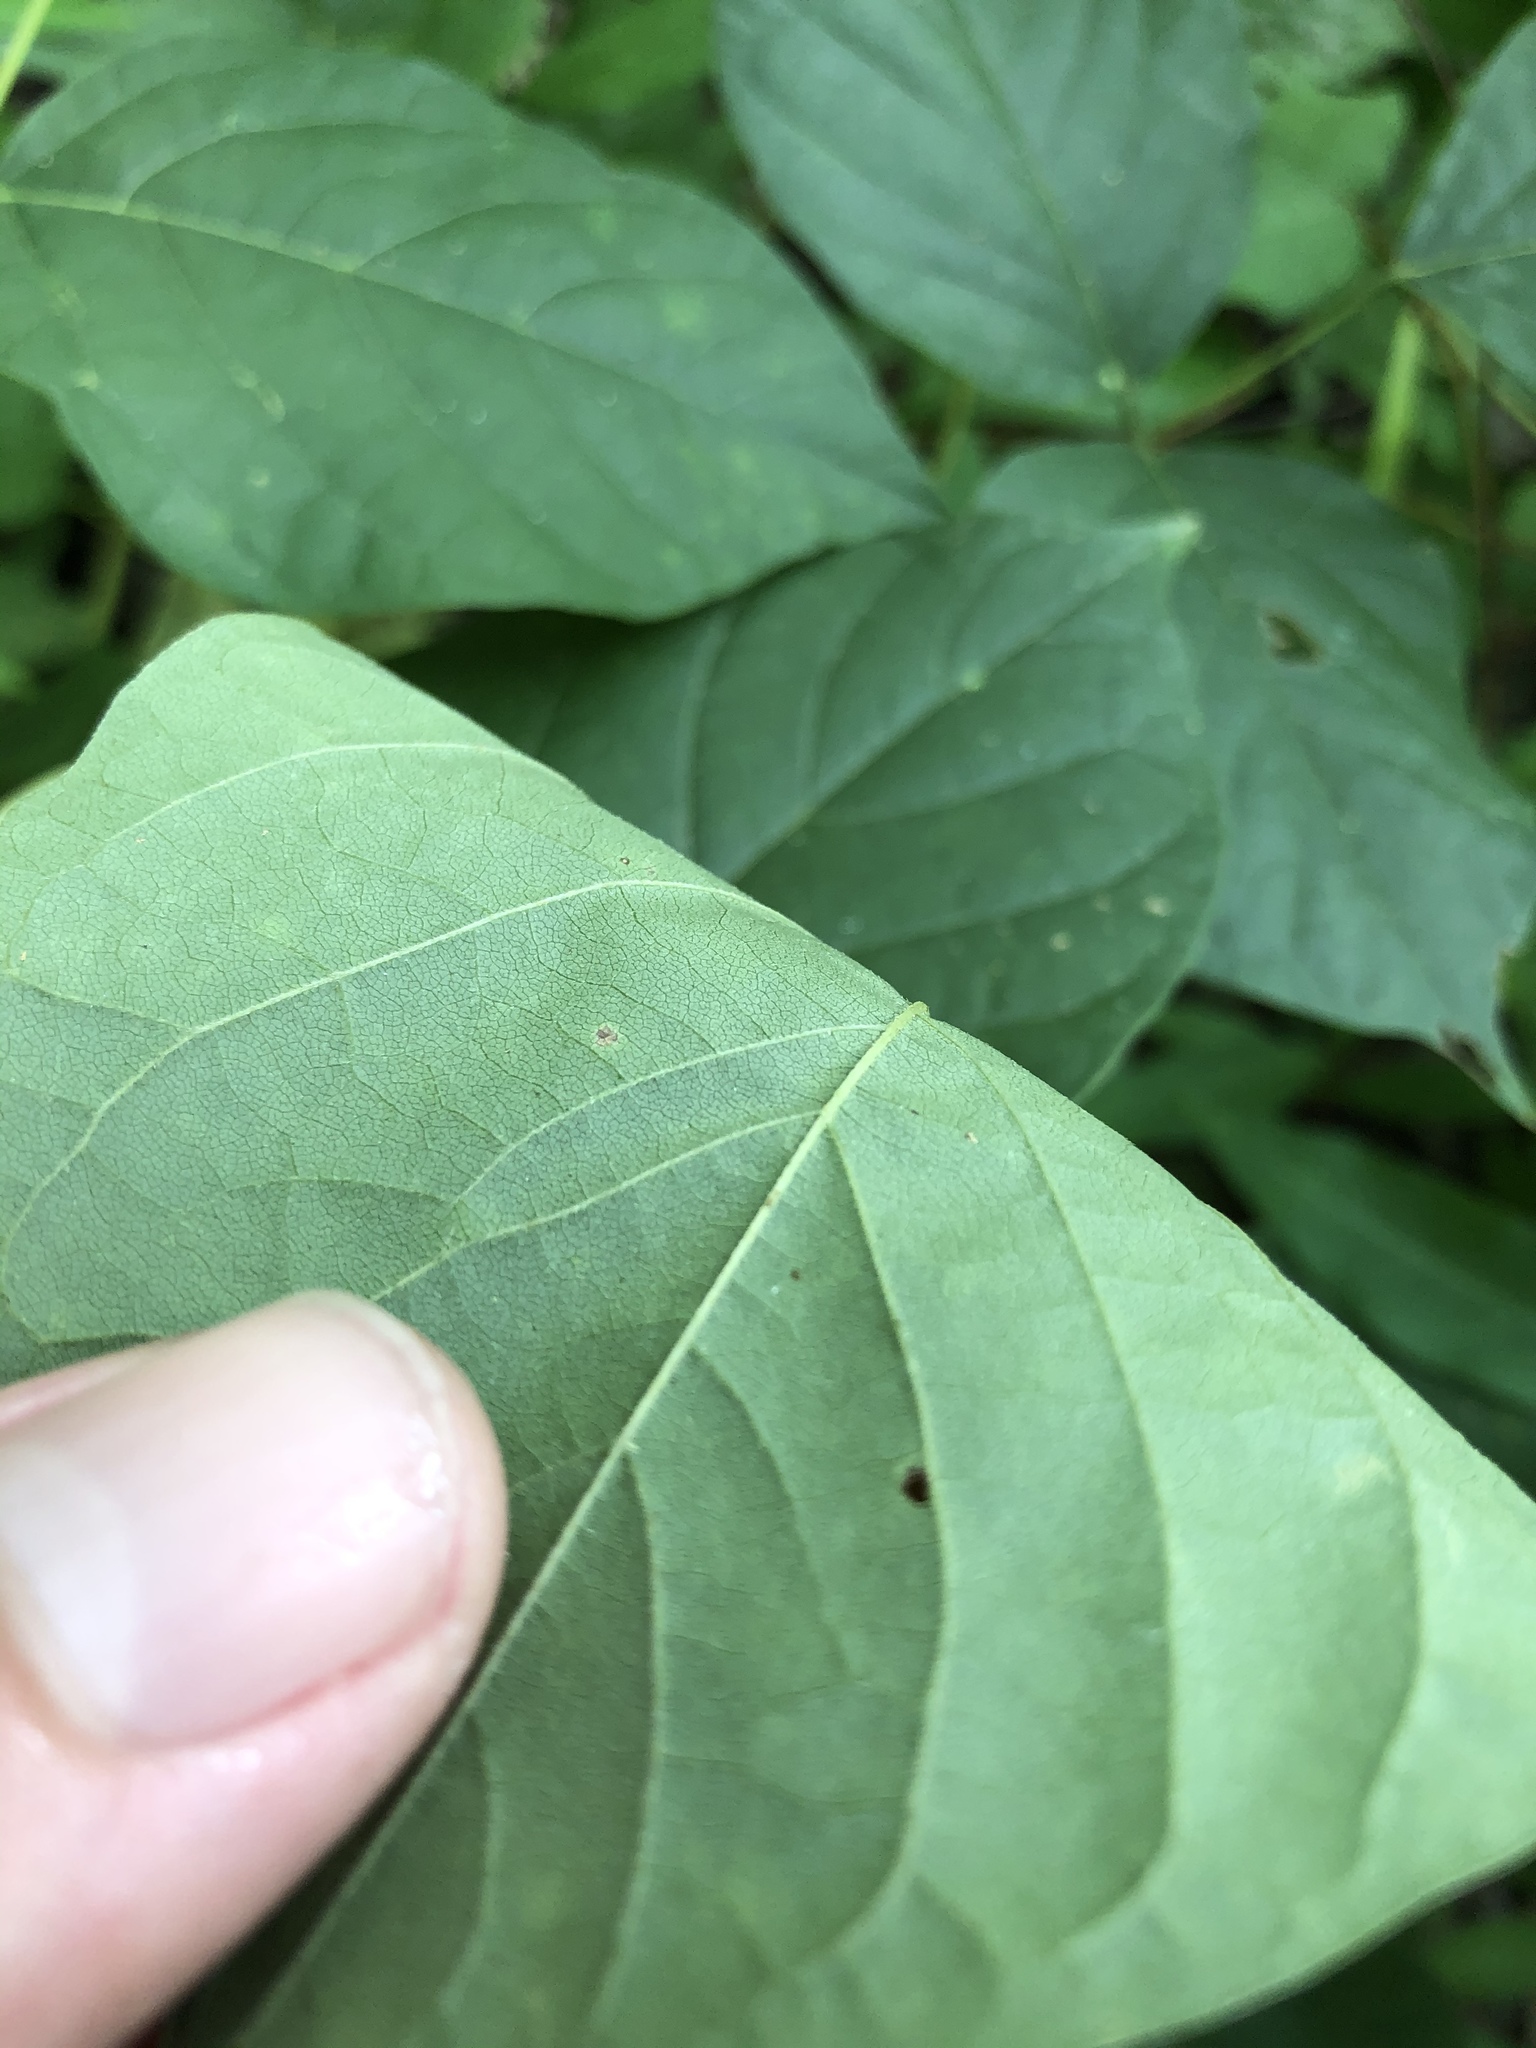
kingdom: Plantae
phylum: Tracheophyta
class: Magnoliopsida
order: Fabales
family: Fabaceae
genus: Lackeya
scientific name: Lackeya multiflora
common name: Boykin's clusterpea
